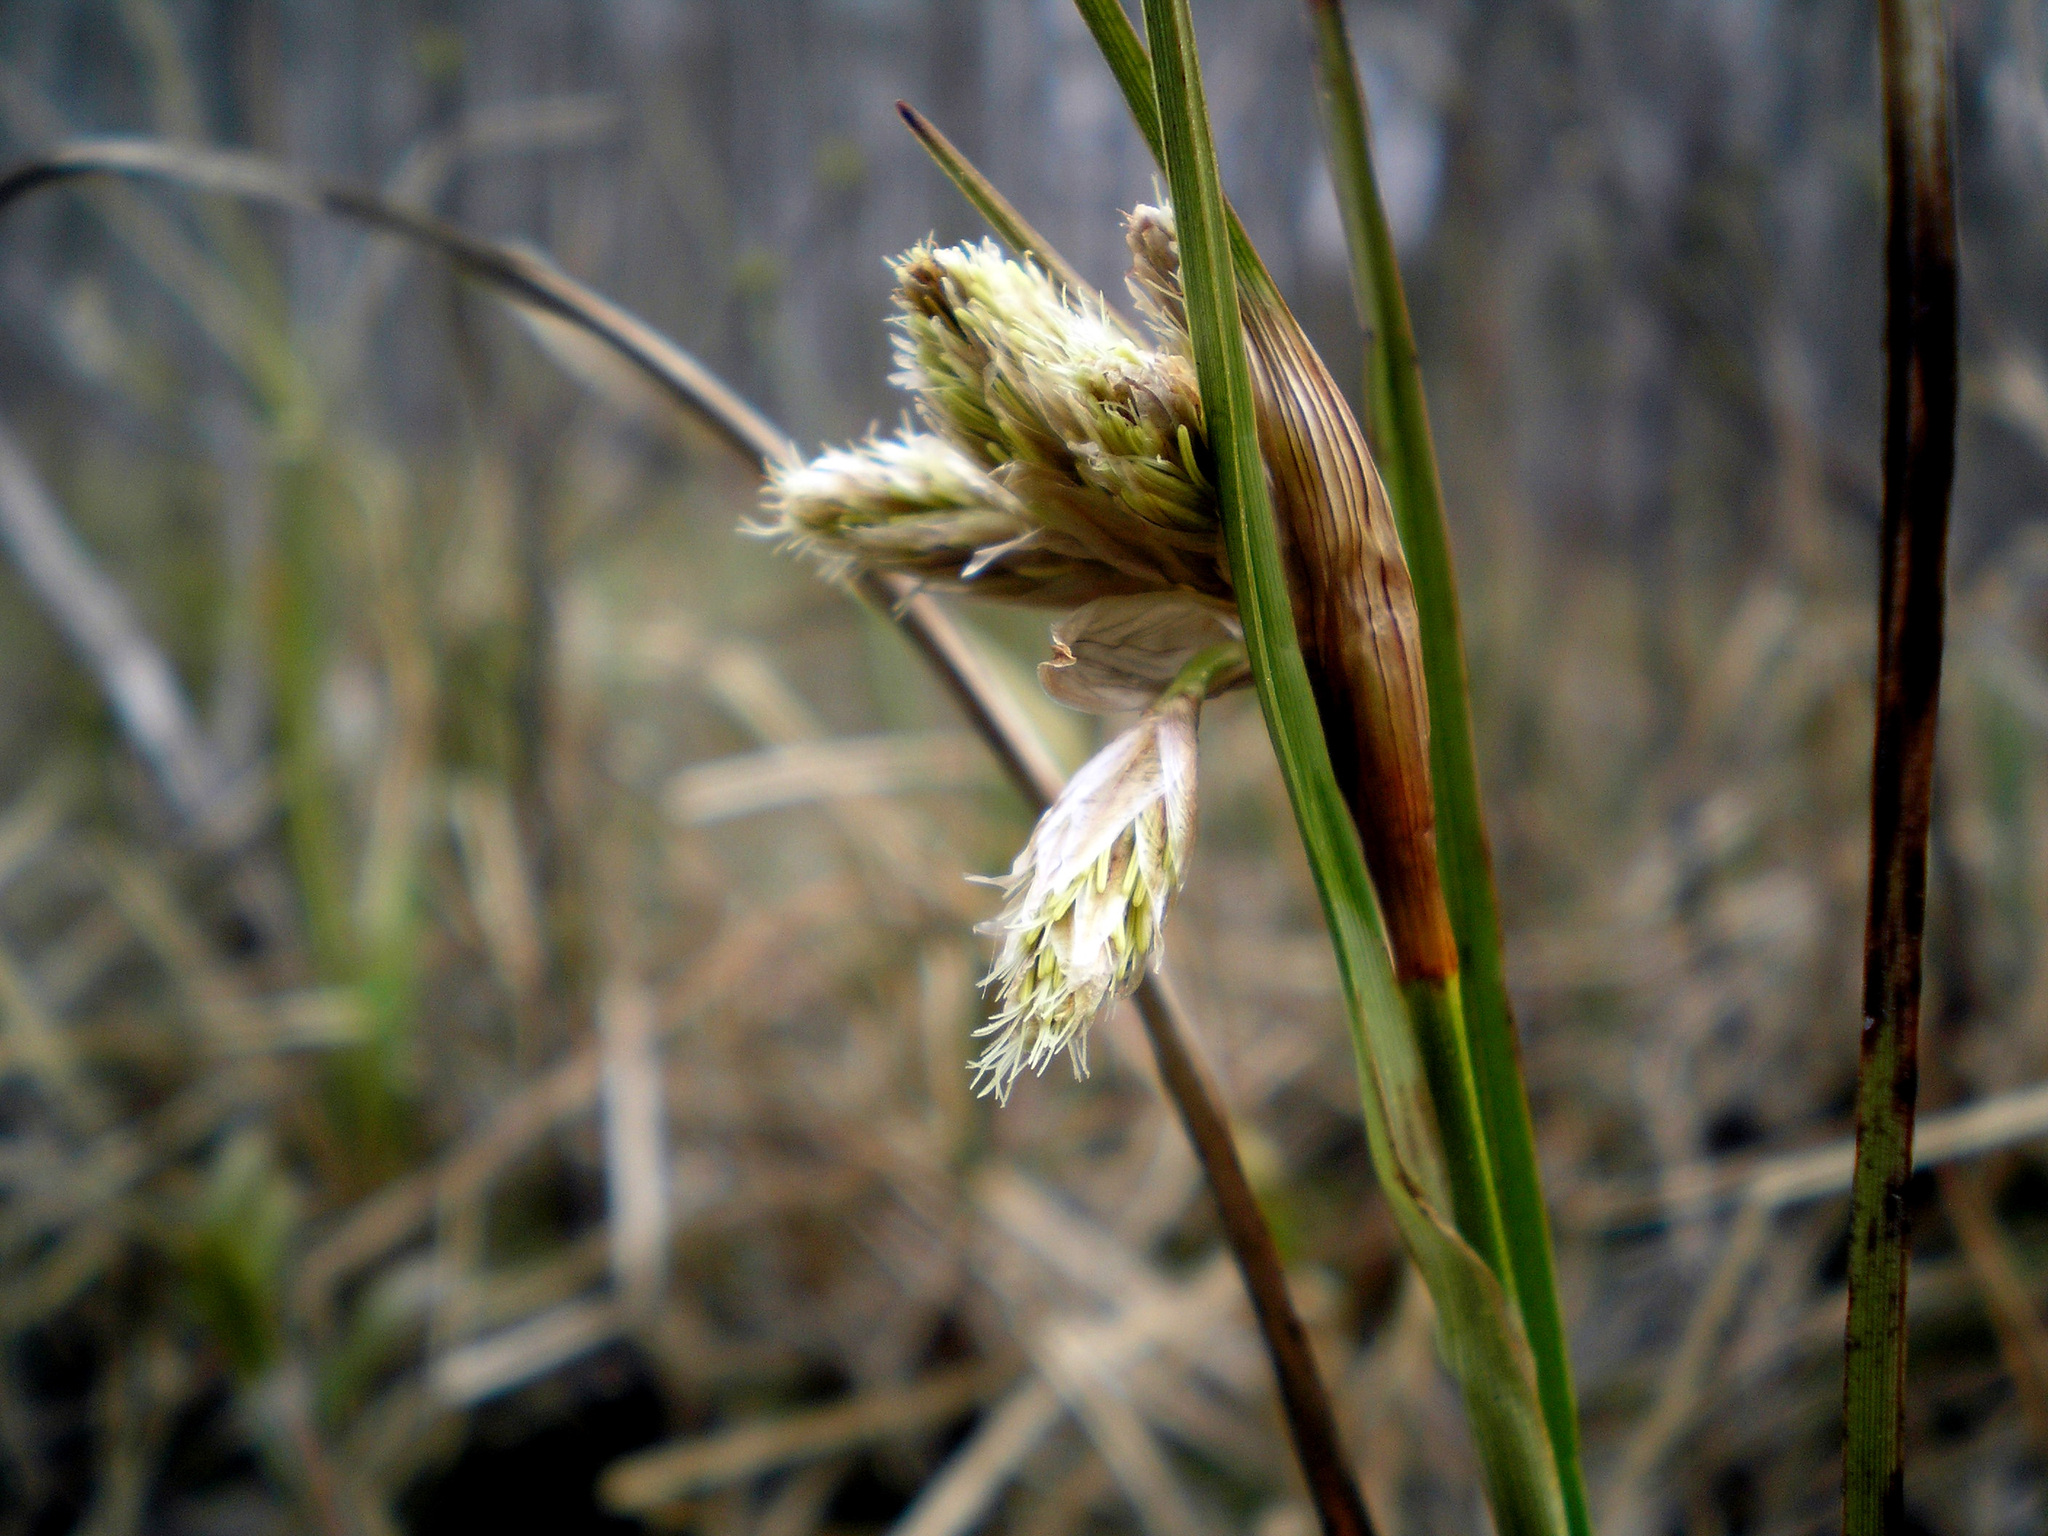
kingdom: Plantae
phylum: Tracheophyta
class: Liliopsida
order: Poales
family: Cyperaceae
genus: Eriophorum
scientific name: Eriophorum angustifolium
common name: Common cottongrass
